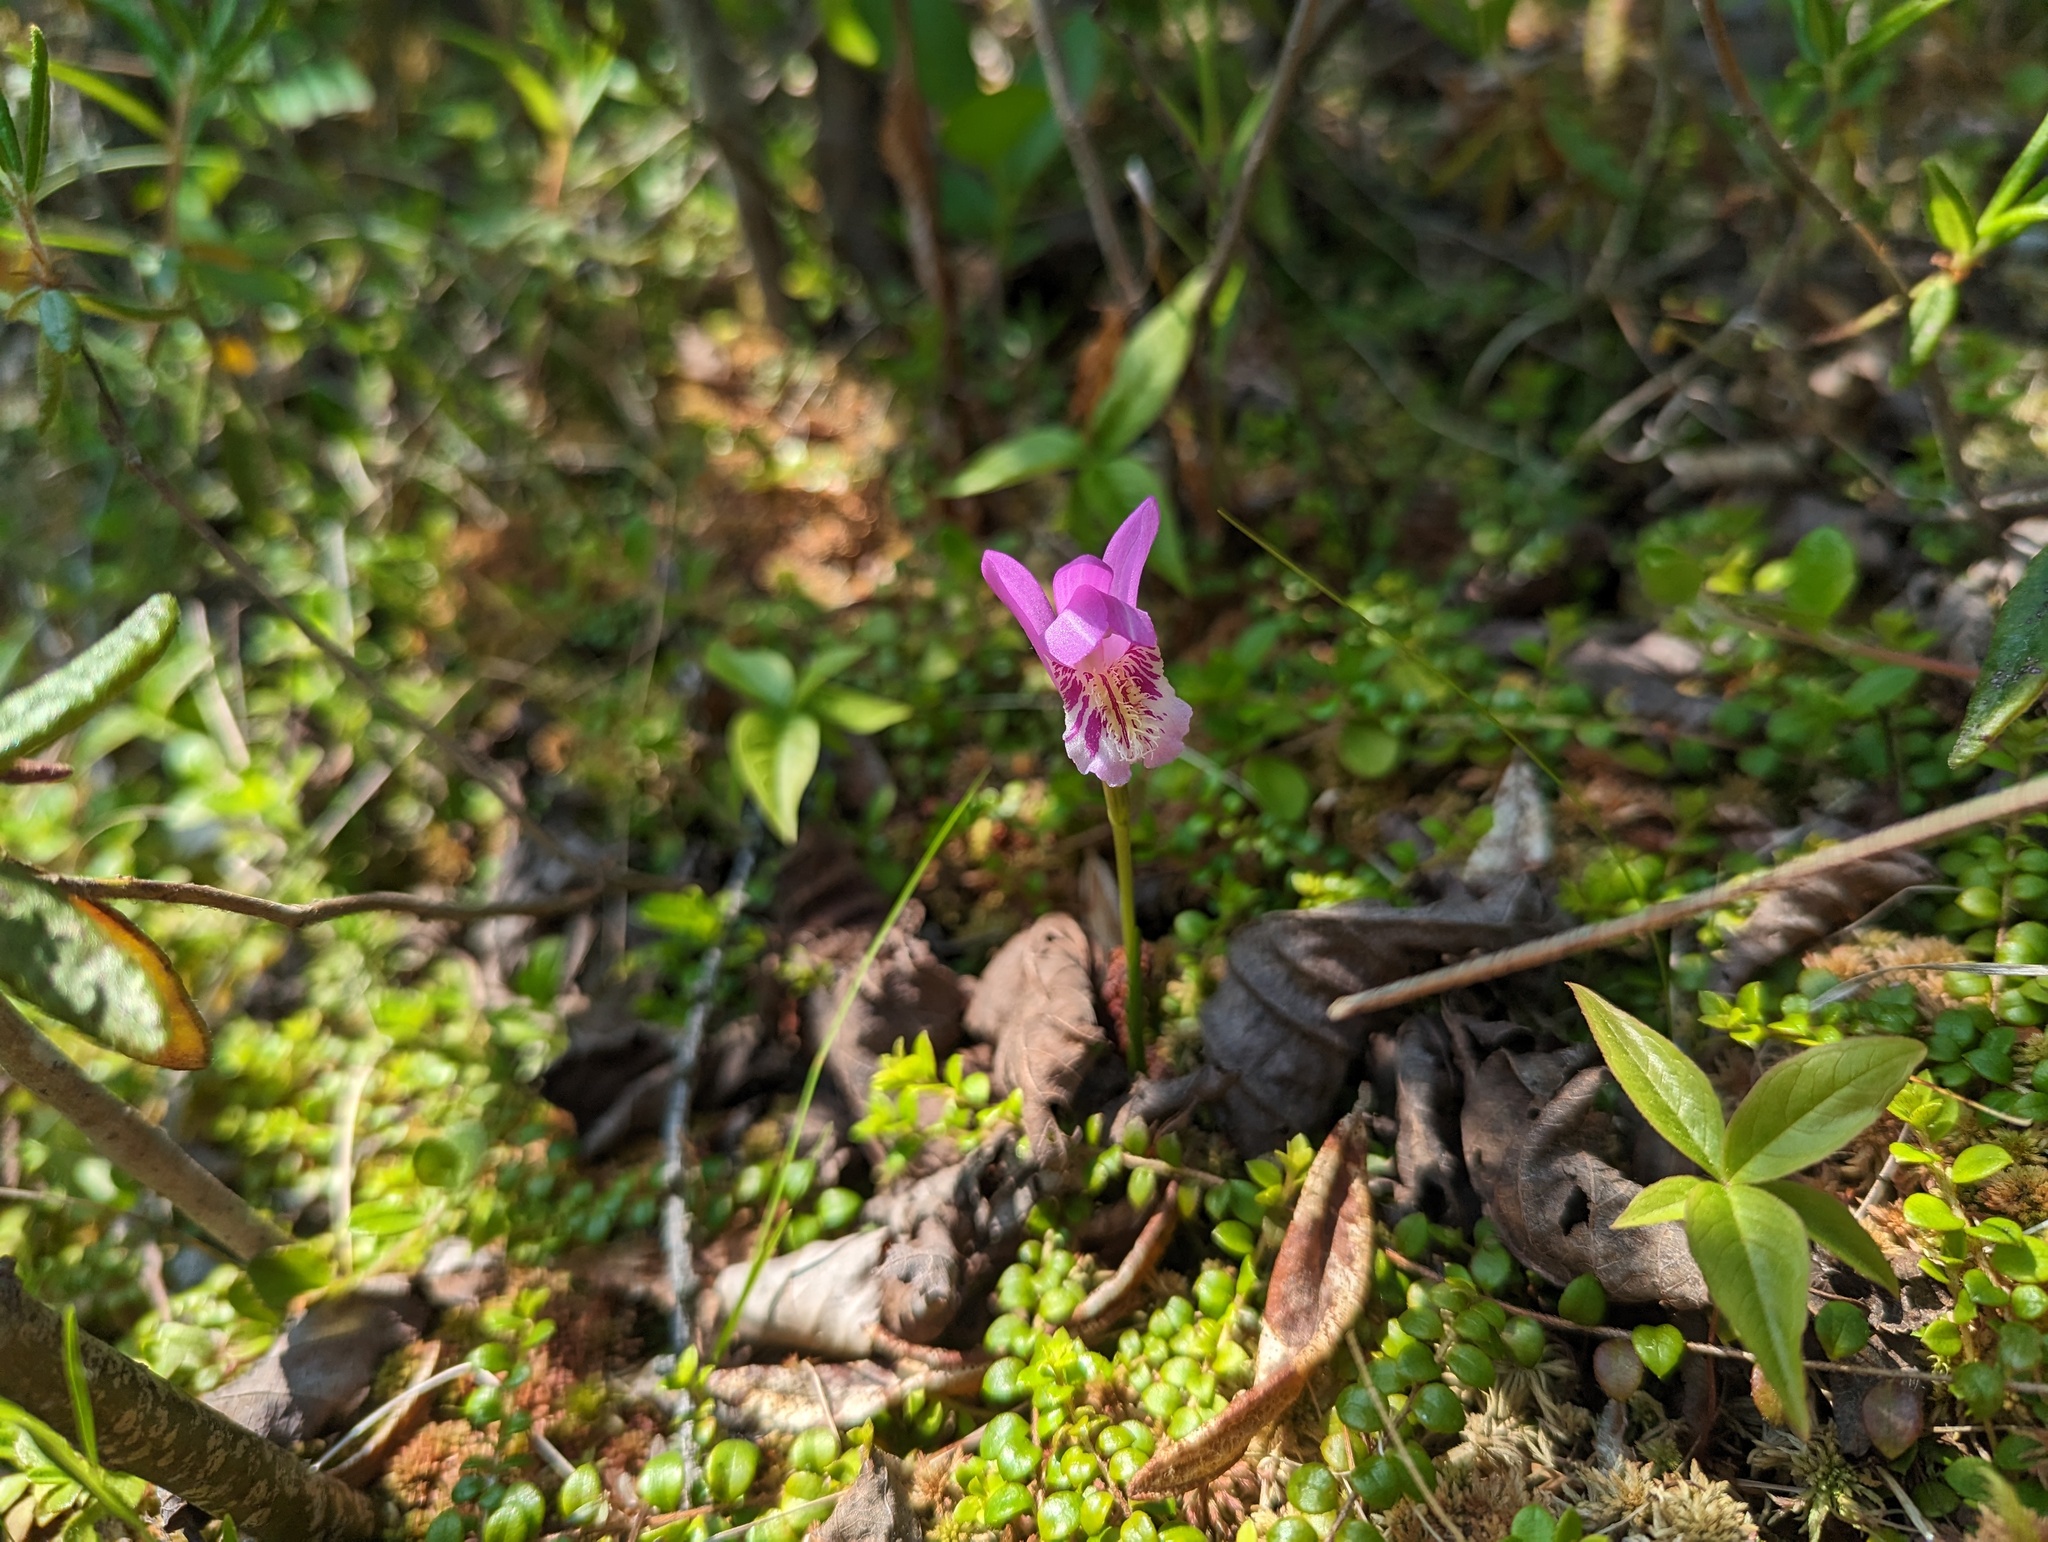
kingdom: Plantae
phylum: Tracheophyta
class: Liliopsida
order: Asparagales
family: Orchidaceae
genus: Arethusa
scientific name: Arethusa bulbosa
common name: Arethusa
